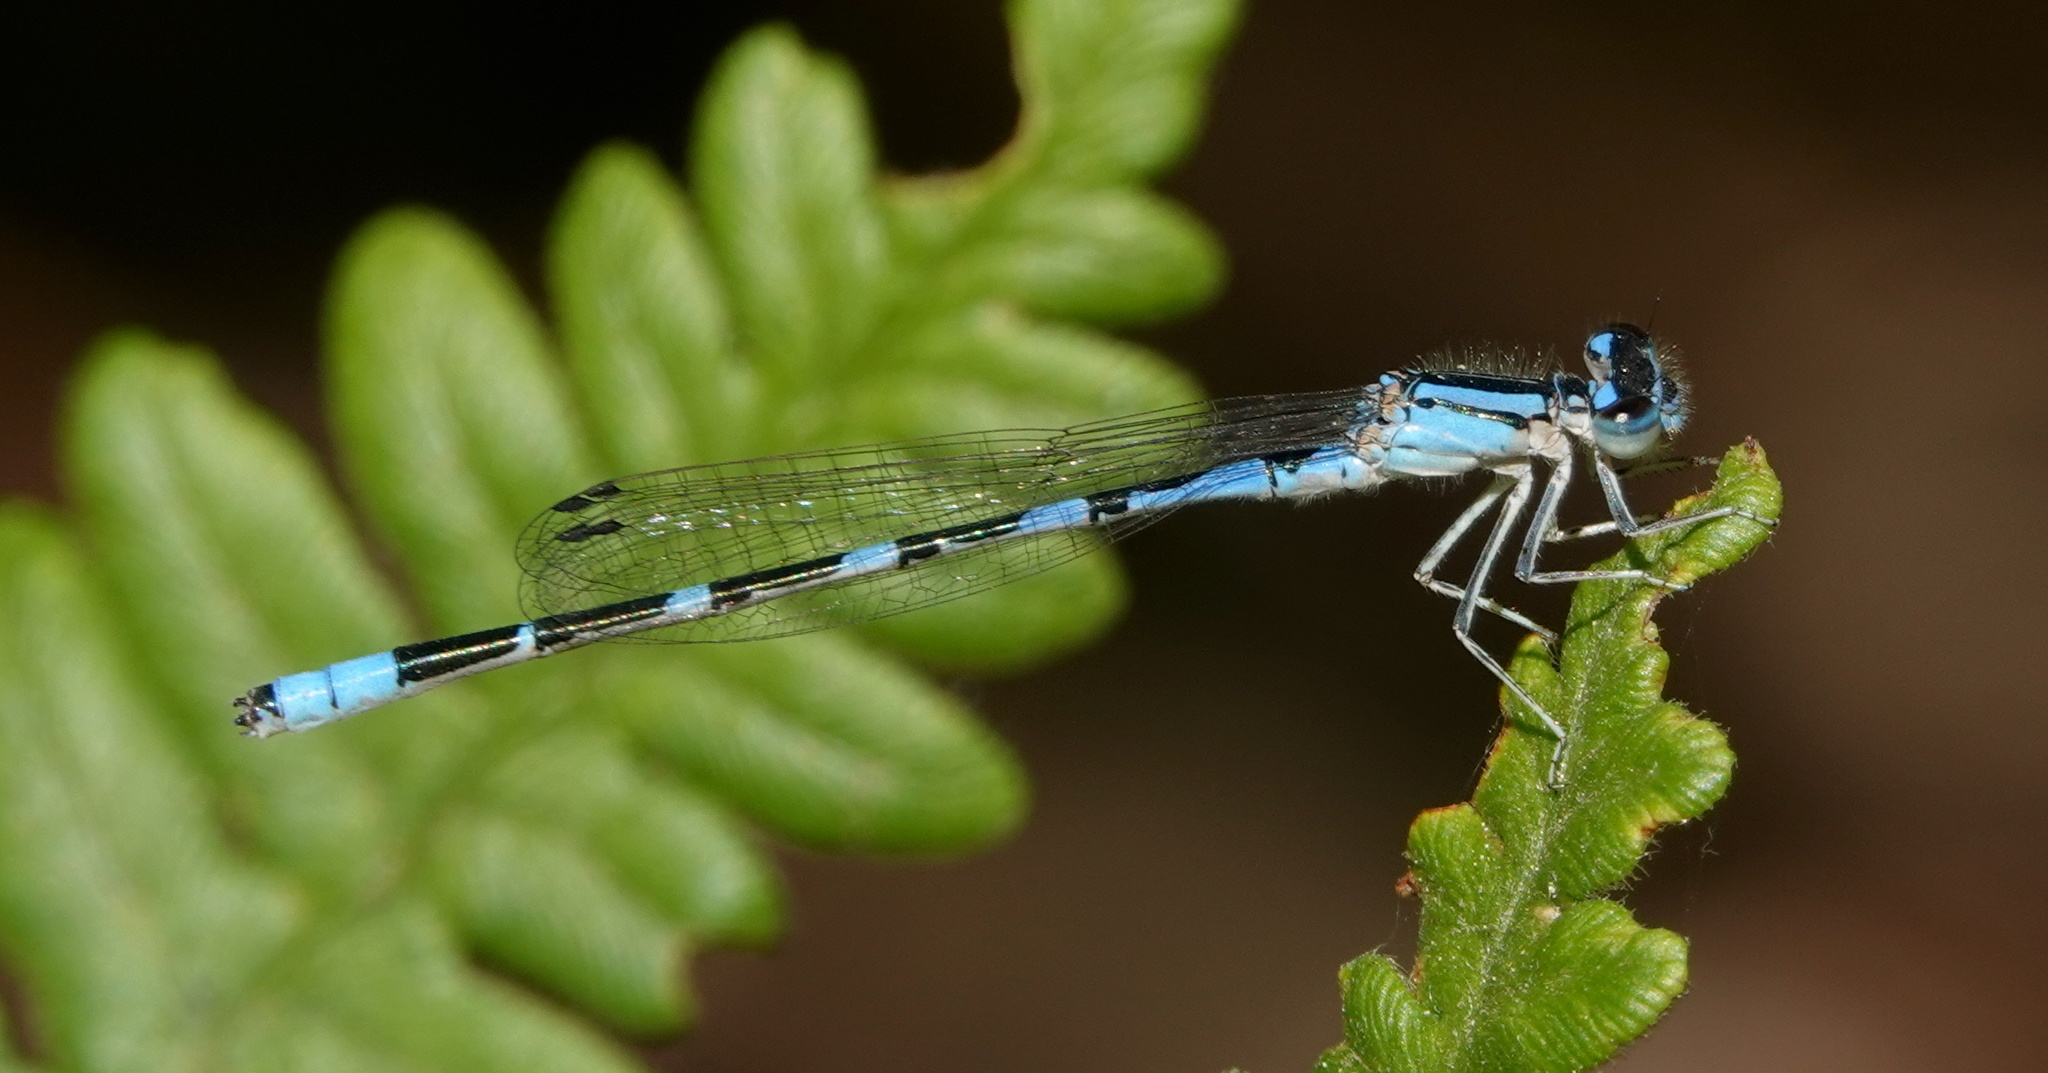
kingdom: Animalia
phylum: Arthropoda
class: Insecta
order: Odonata
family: Coenagrionidae
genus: Enallagma
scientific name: Enallagma praevarum
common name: Arroyo bluet
